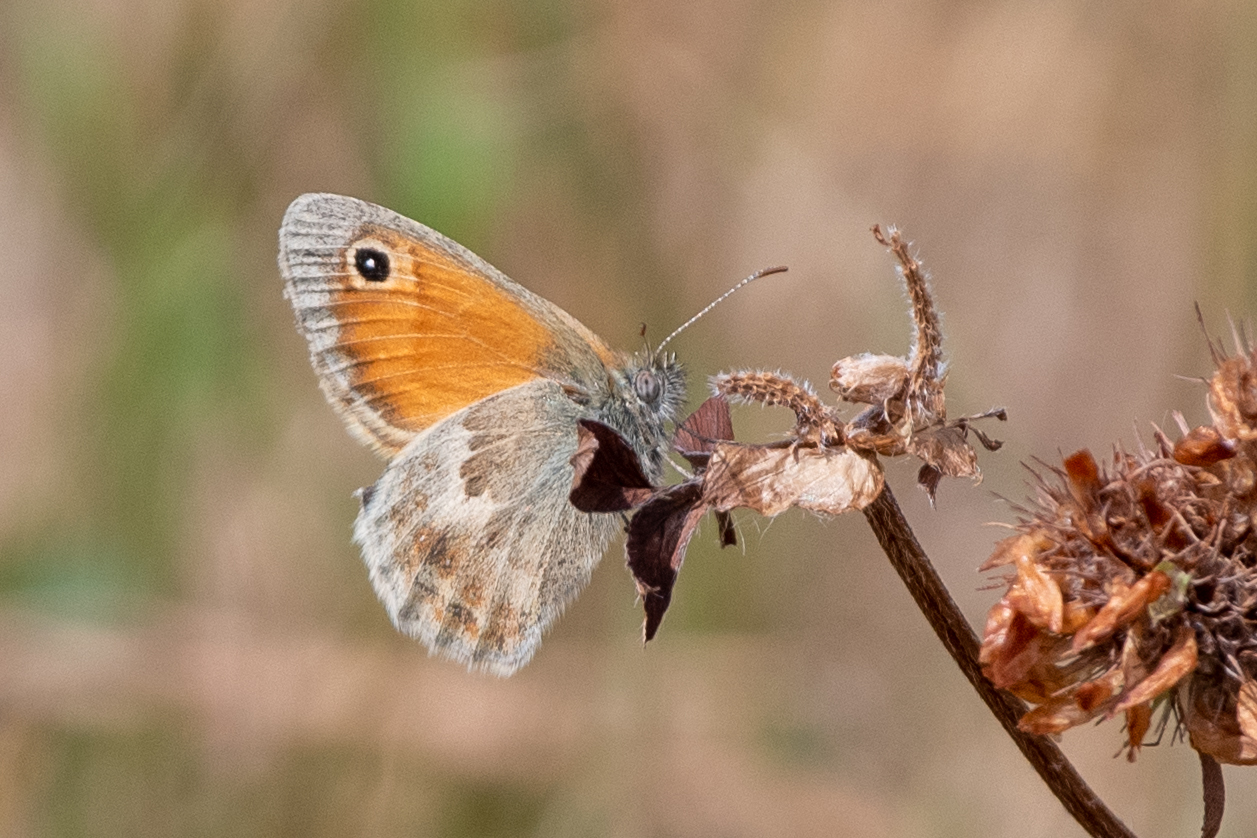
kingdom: Animalia
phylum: Arthropoda
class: Insecta
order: Lepidoptera
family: Nymphalidae
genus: Coenonympha
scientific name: Coenonympha pamphilus
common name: Small heath
